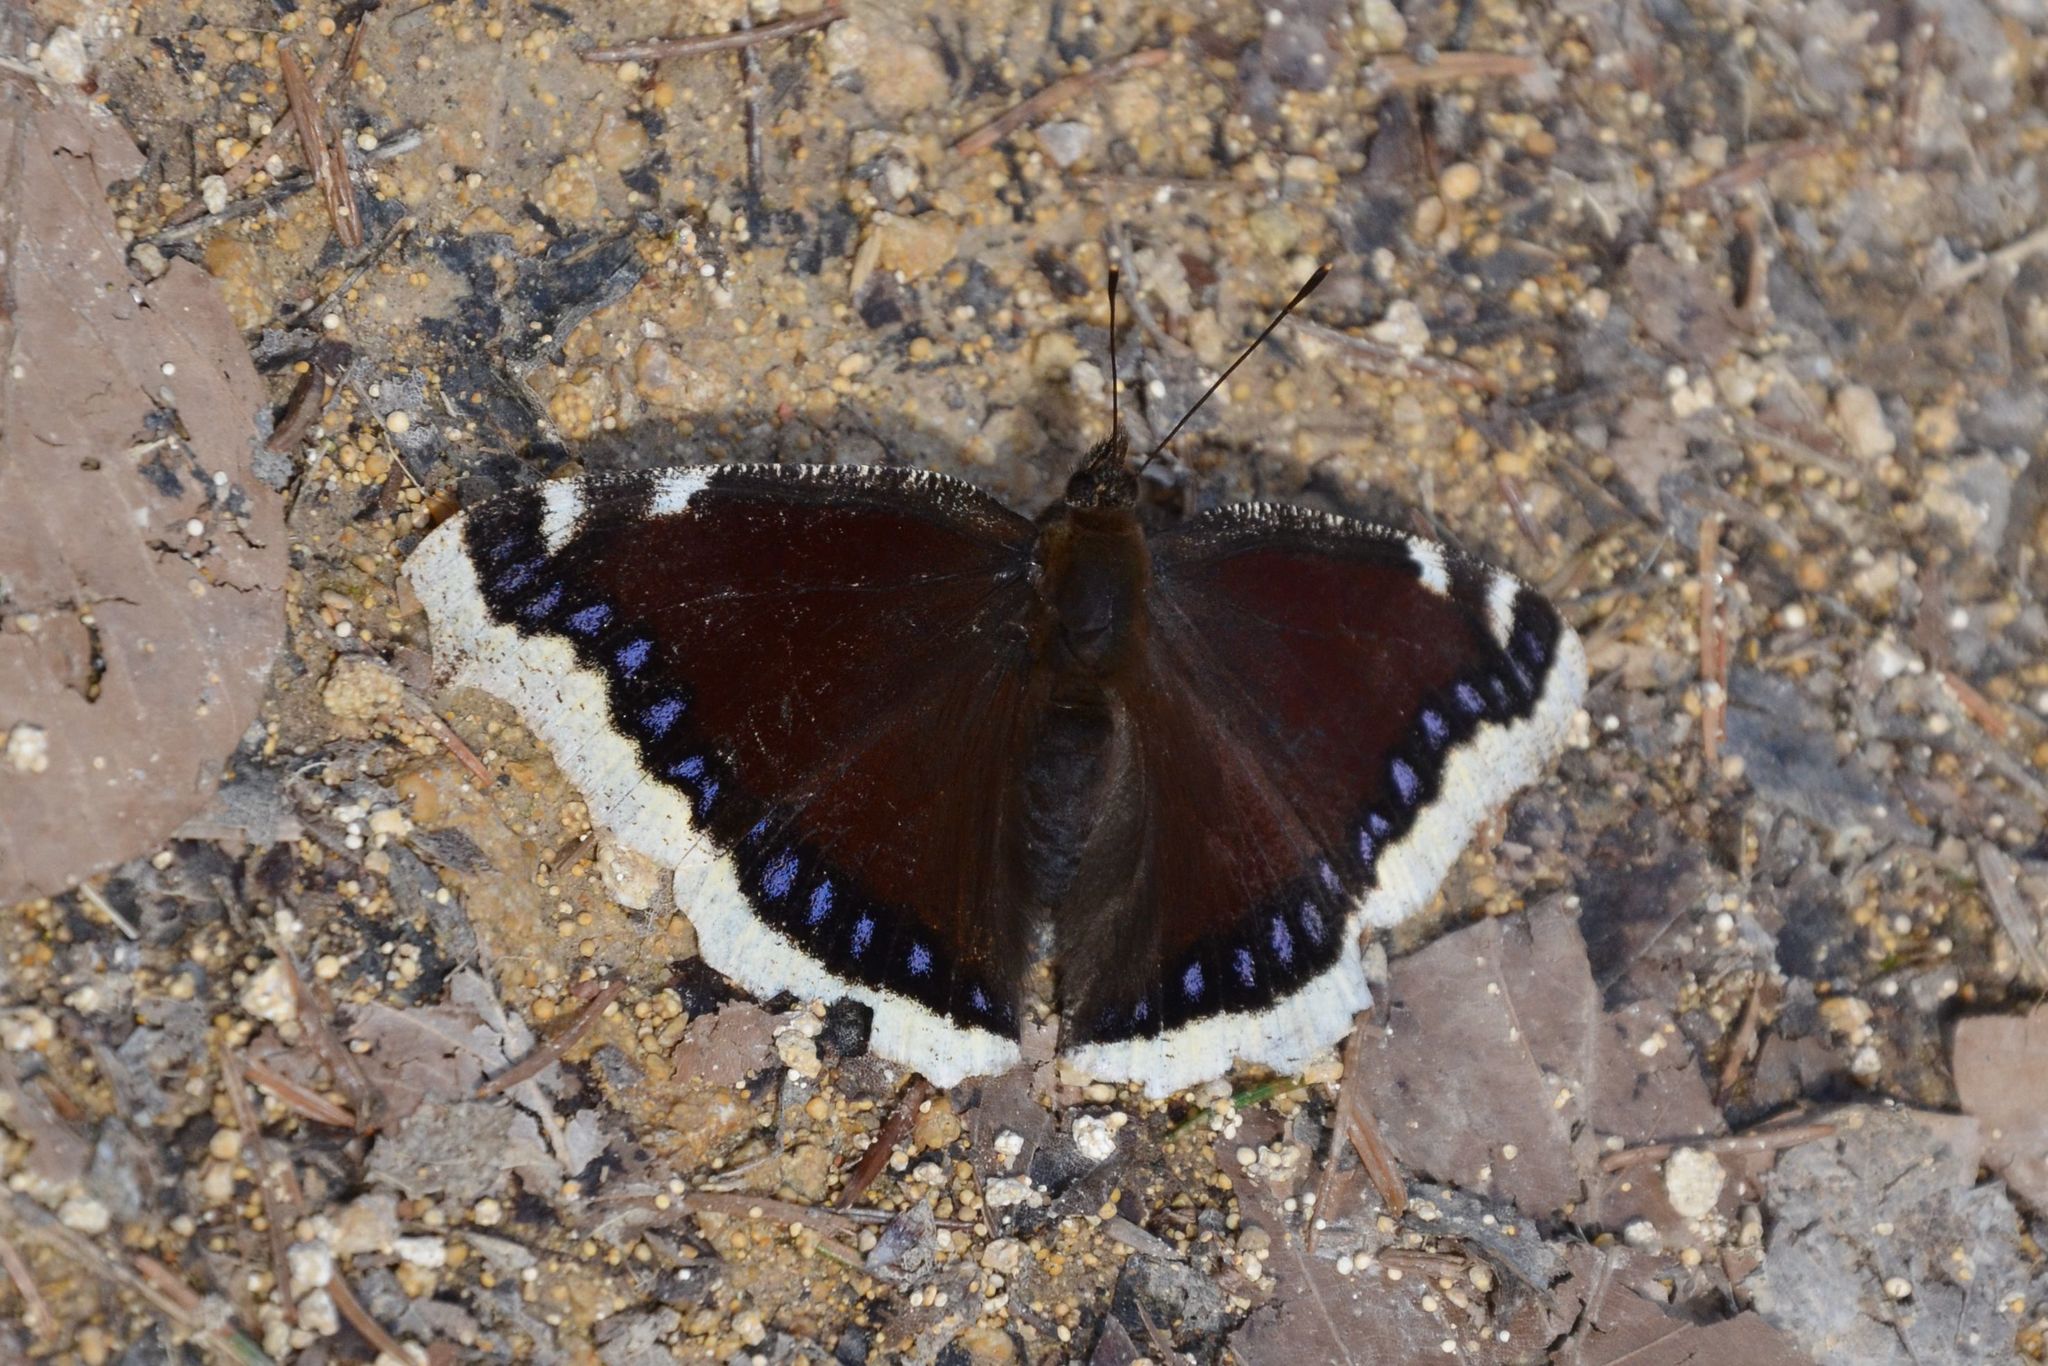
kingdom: Animalia
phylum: Arthropoda
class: Insecta
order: Lepidoptera
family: Nymphalidae
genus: Nymphalis
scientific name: Nymphalis antiopa
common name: Camberwell beauty
